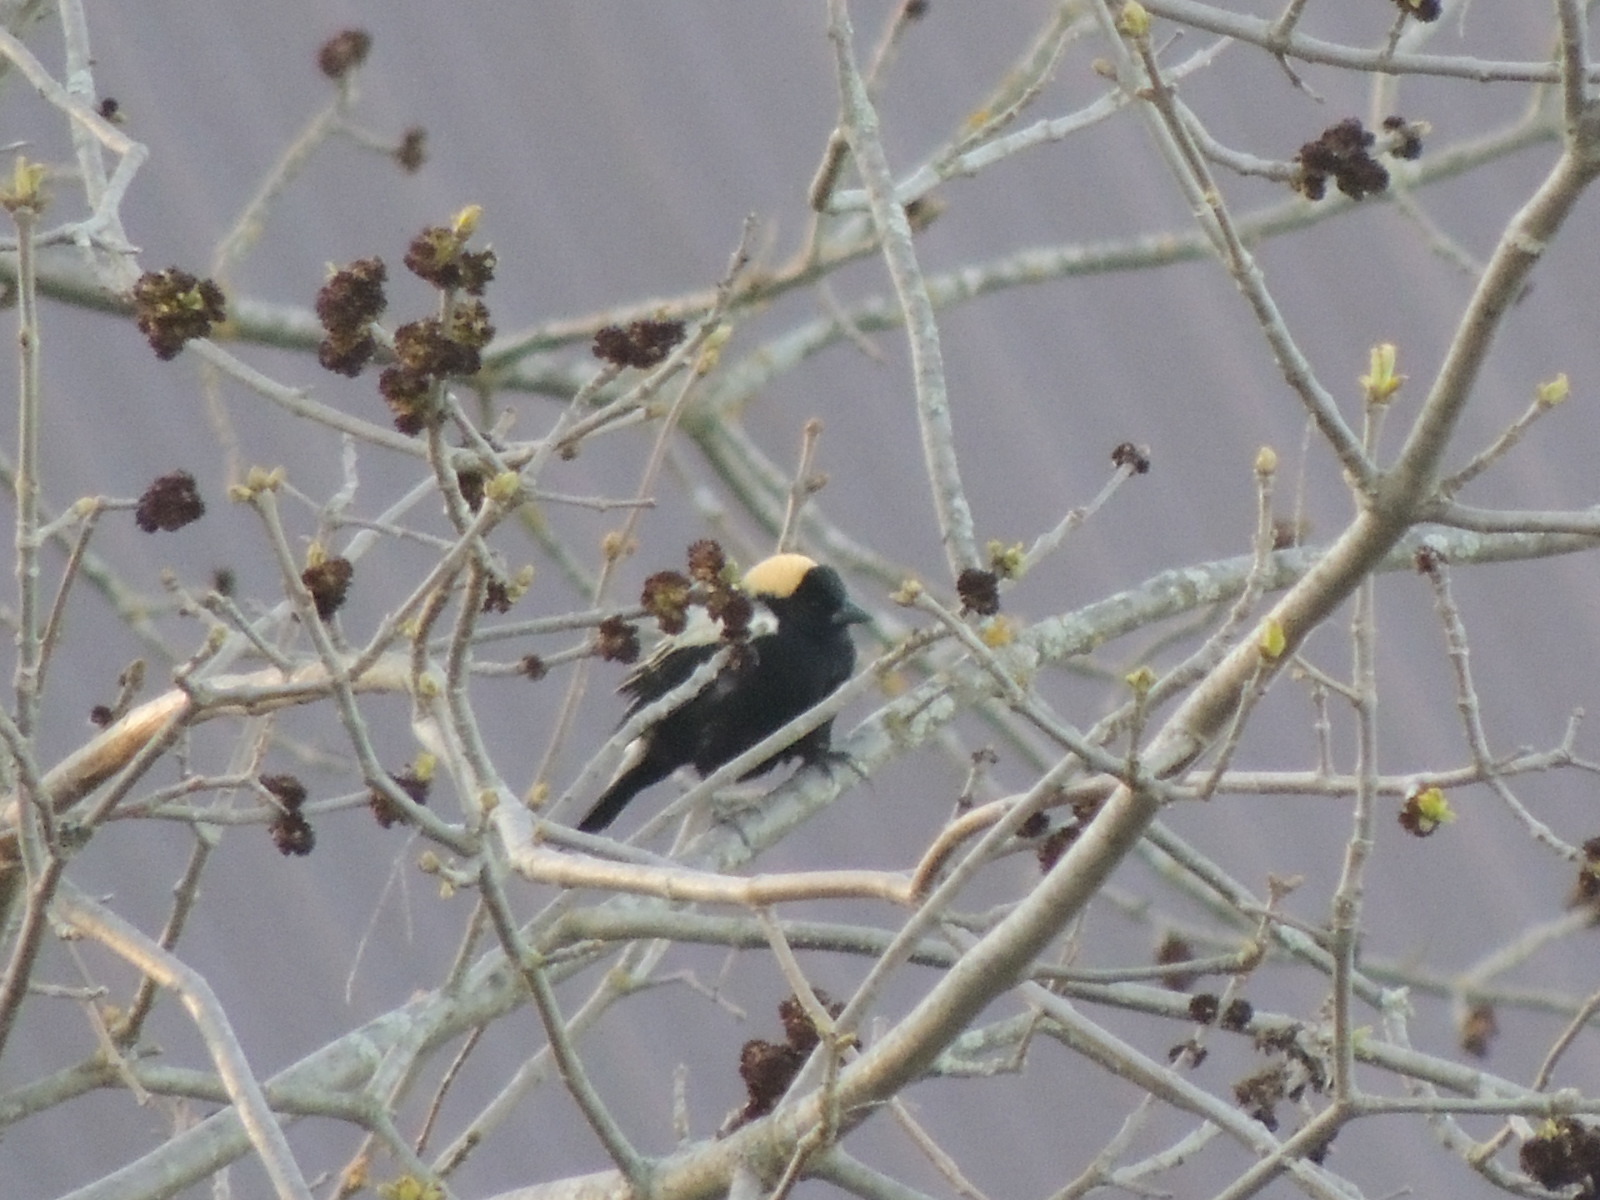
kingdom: Animalia
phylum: Chordata
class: Aves
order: Passeriformes
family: Icteridae
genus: Dolichonyx
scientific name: Dolichonyx oryzivorus
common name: Bobolink
